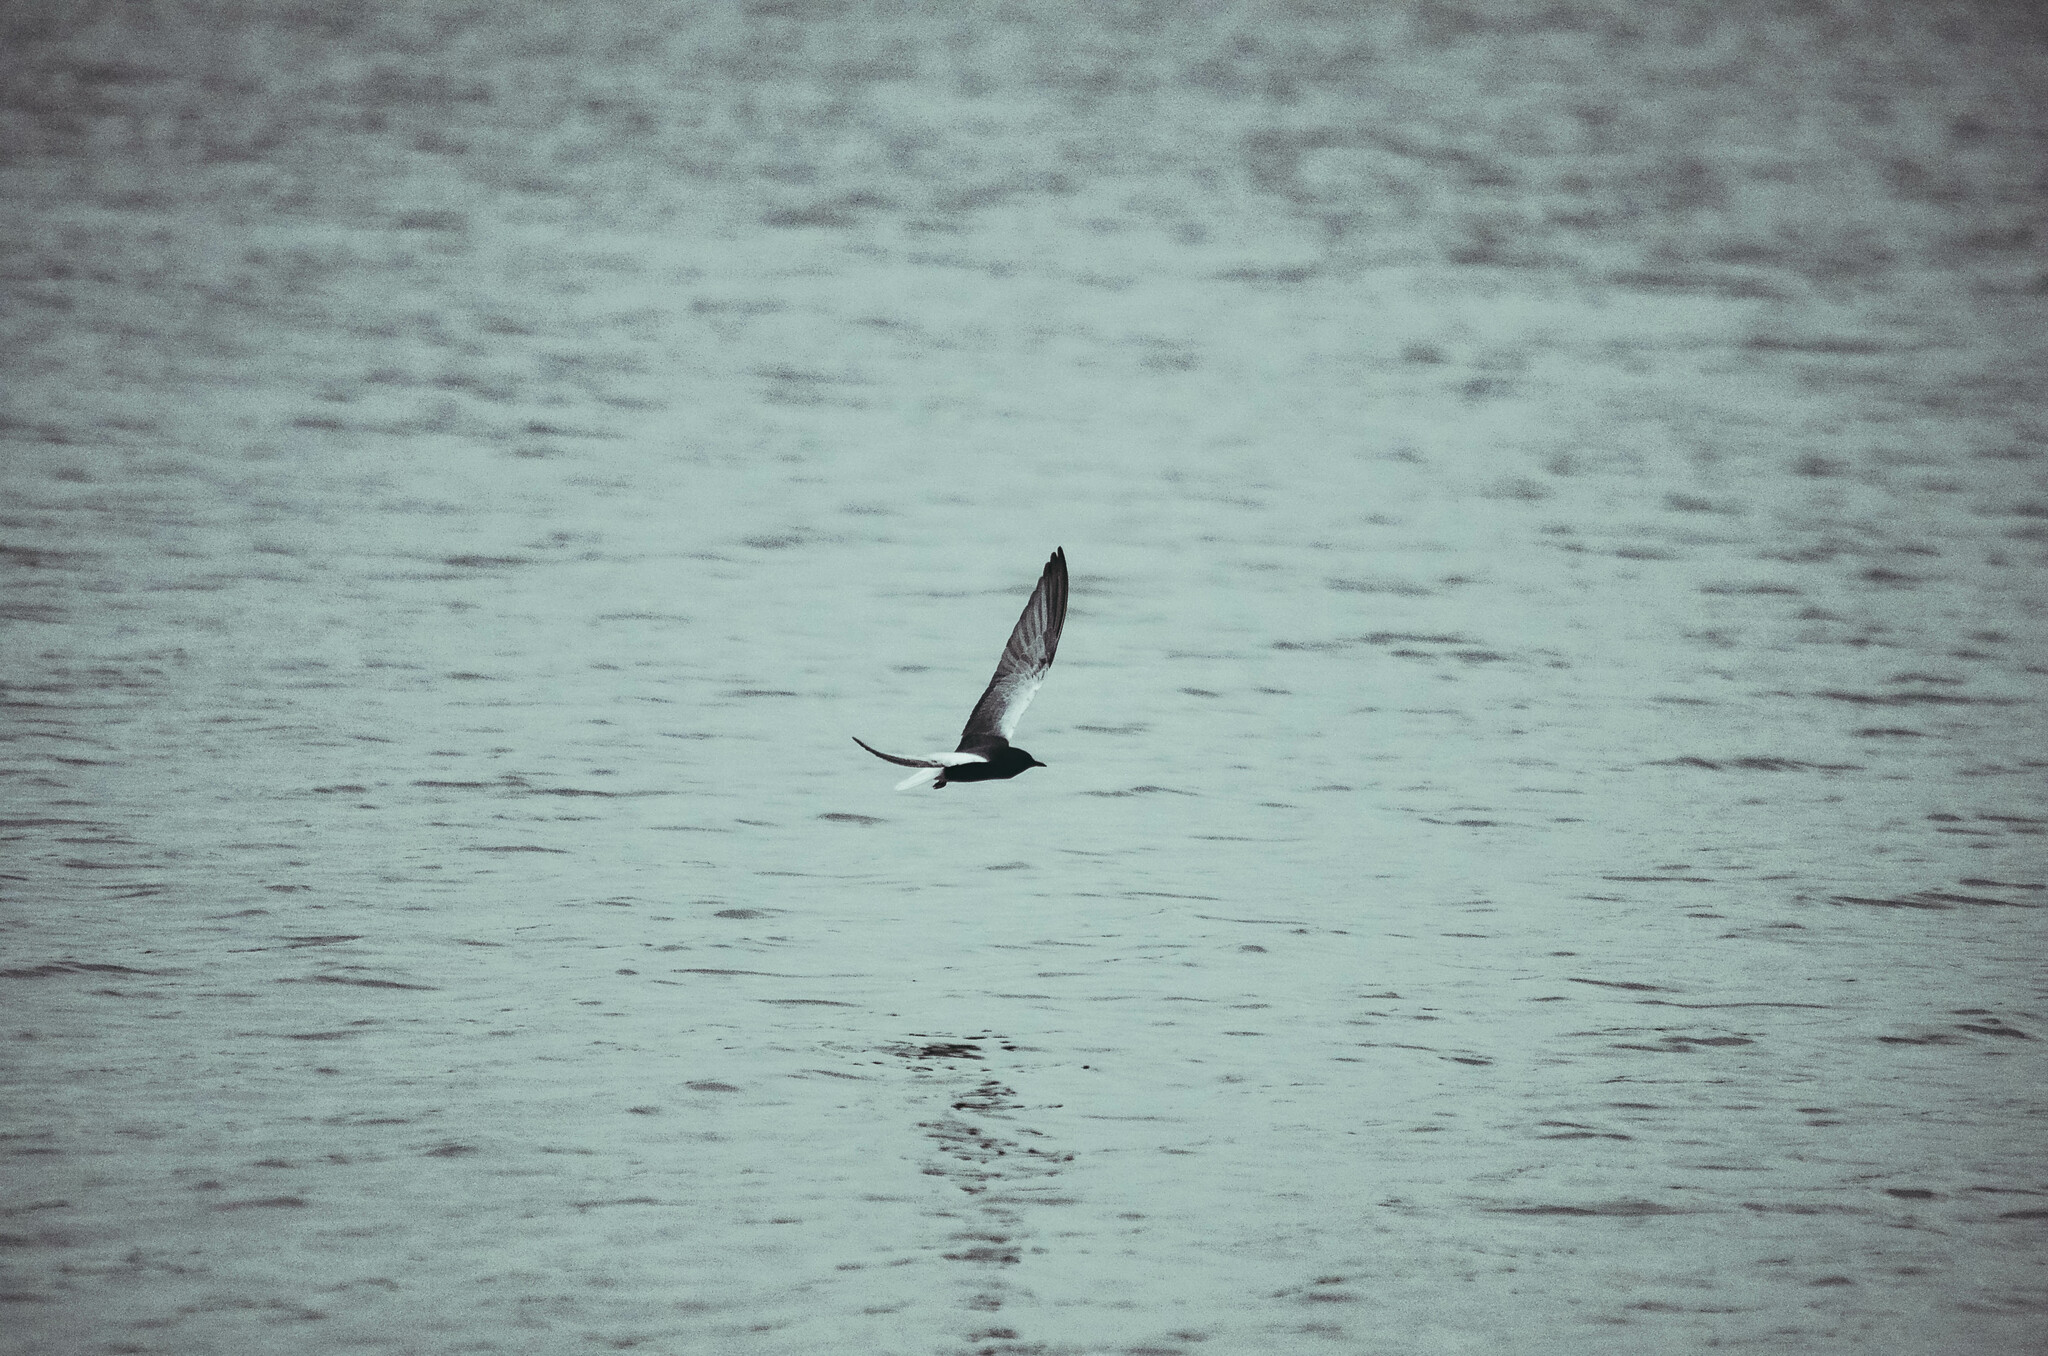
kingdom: Animalia
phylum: Chordata
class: Aves
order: Charadriiformes
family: Laridae
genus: Chlidonias
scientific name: Chlidonias leucopterus
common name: White-winged tern
